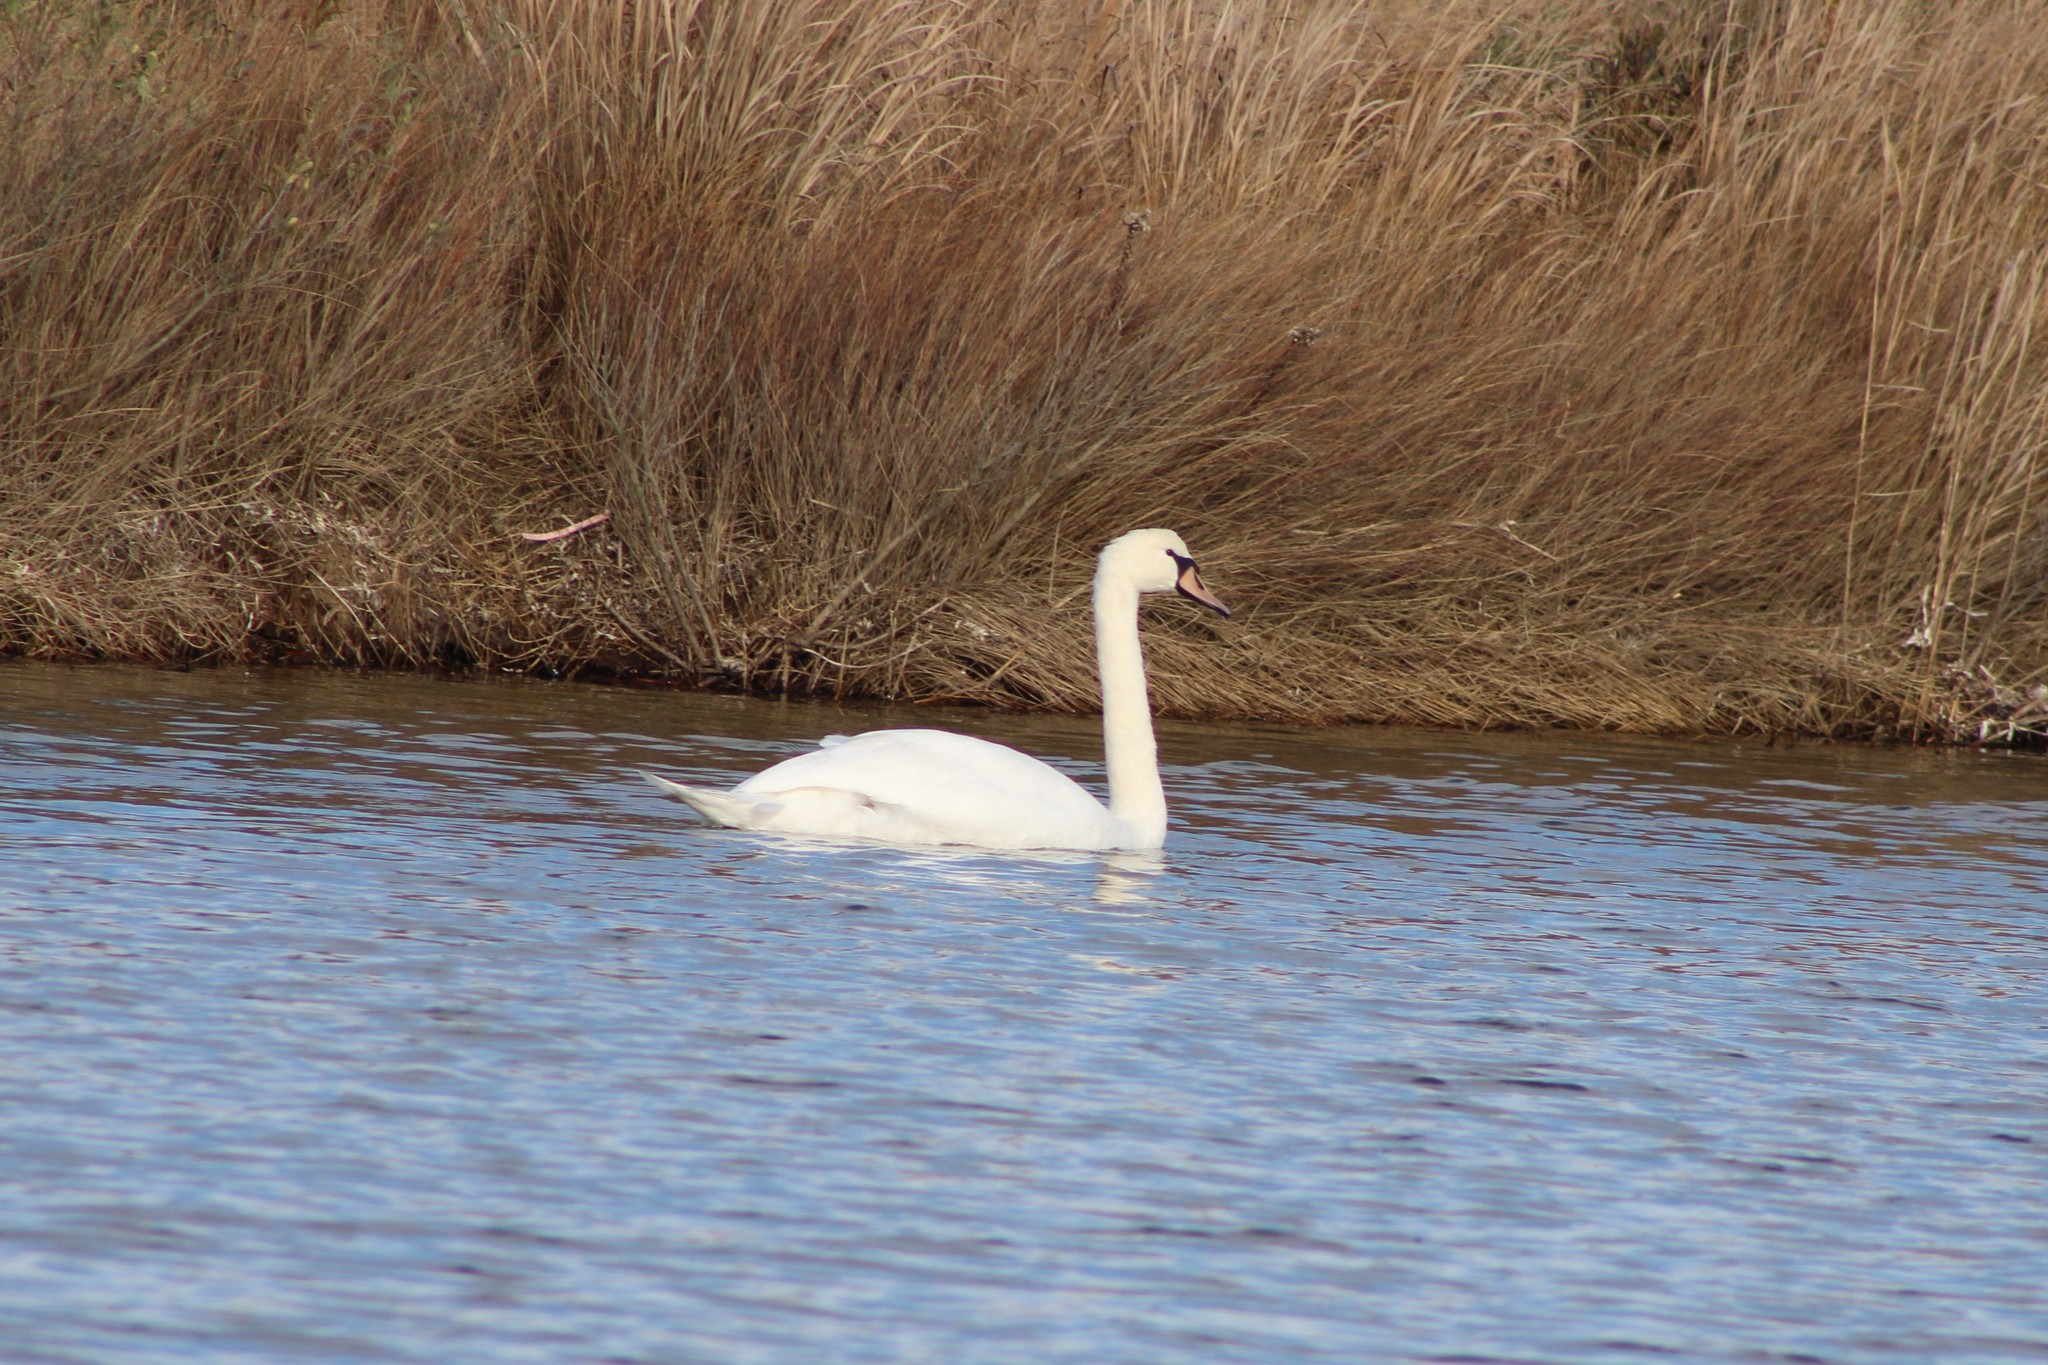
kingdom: Animalia
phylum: Chordata
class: Aves
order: Anseriformes
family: Anatidae
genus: Cygnus
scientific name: Cygnus olor
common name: Mute swan
